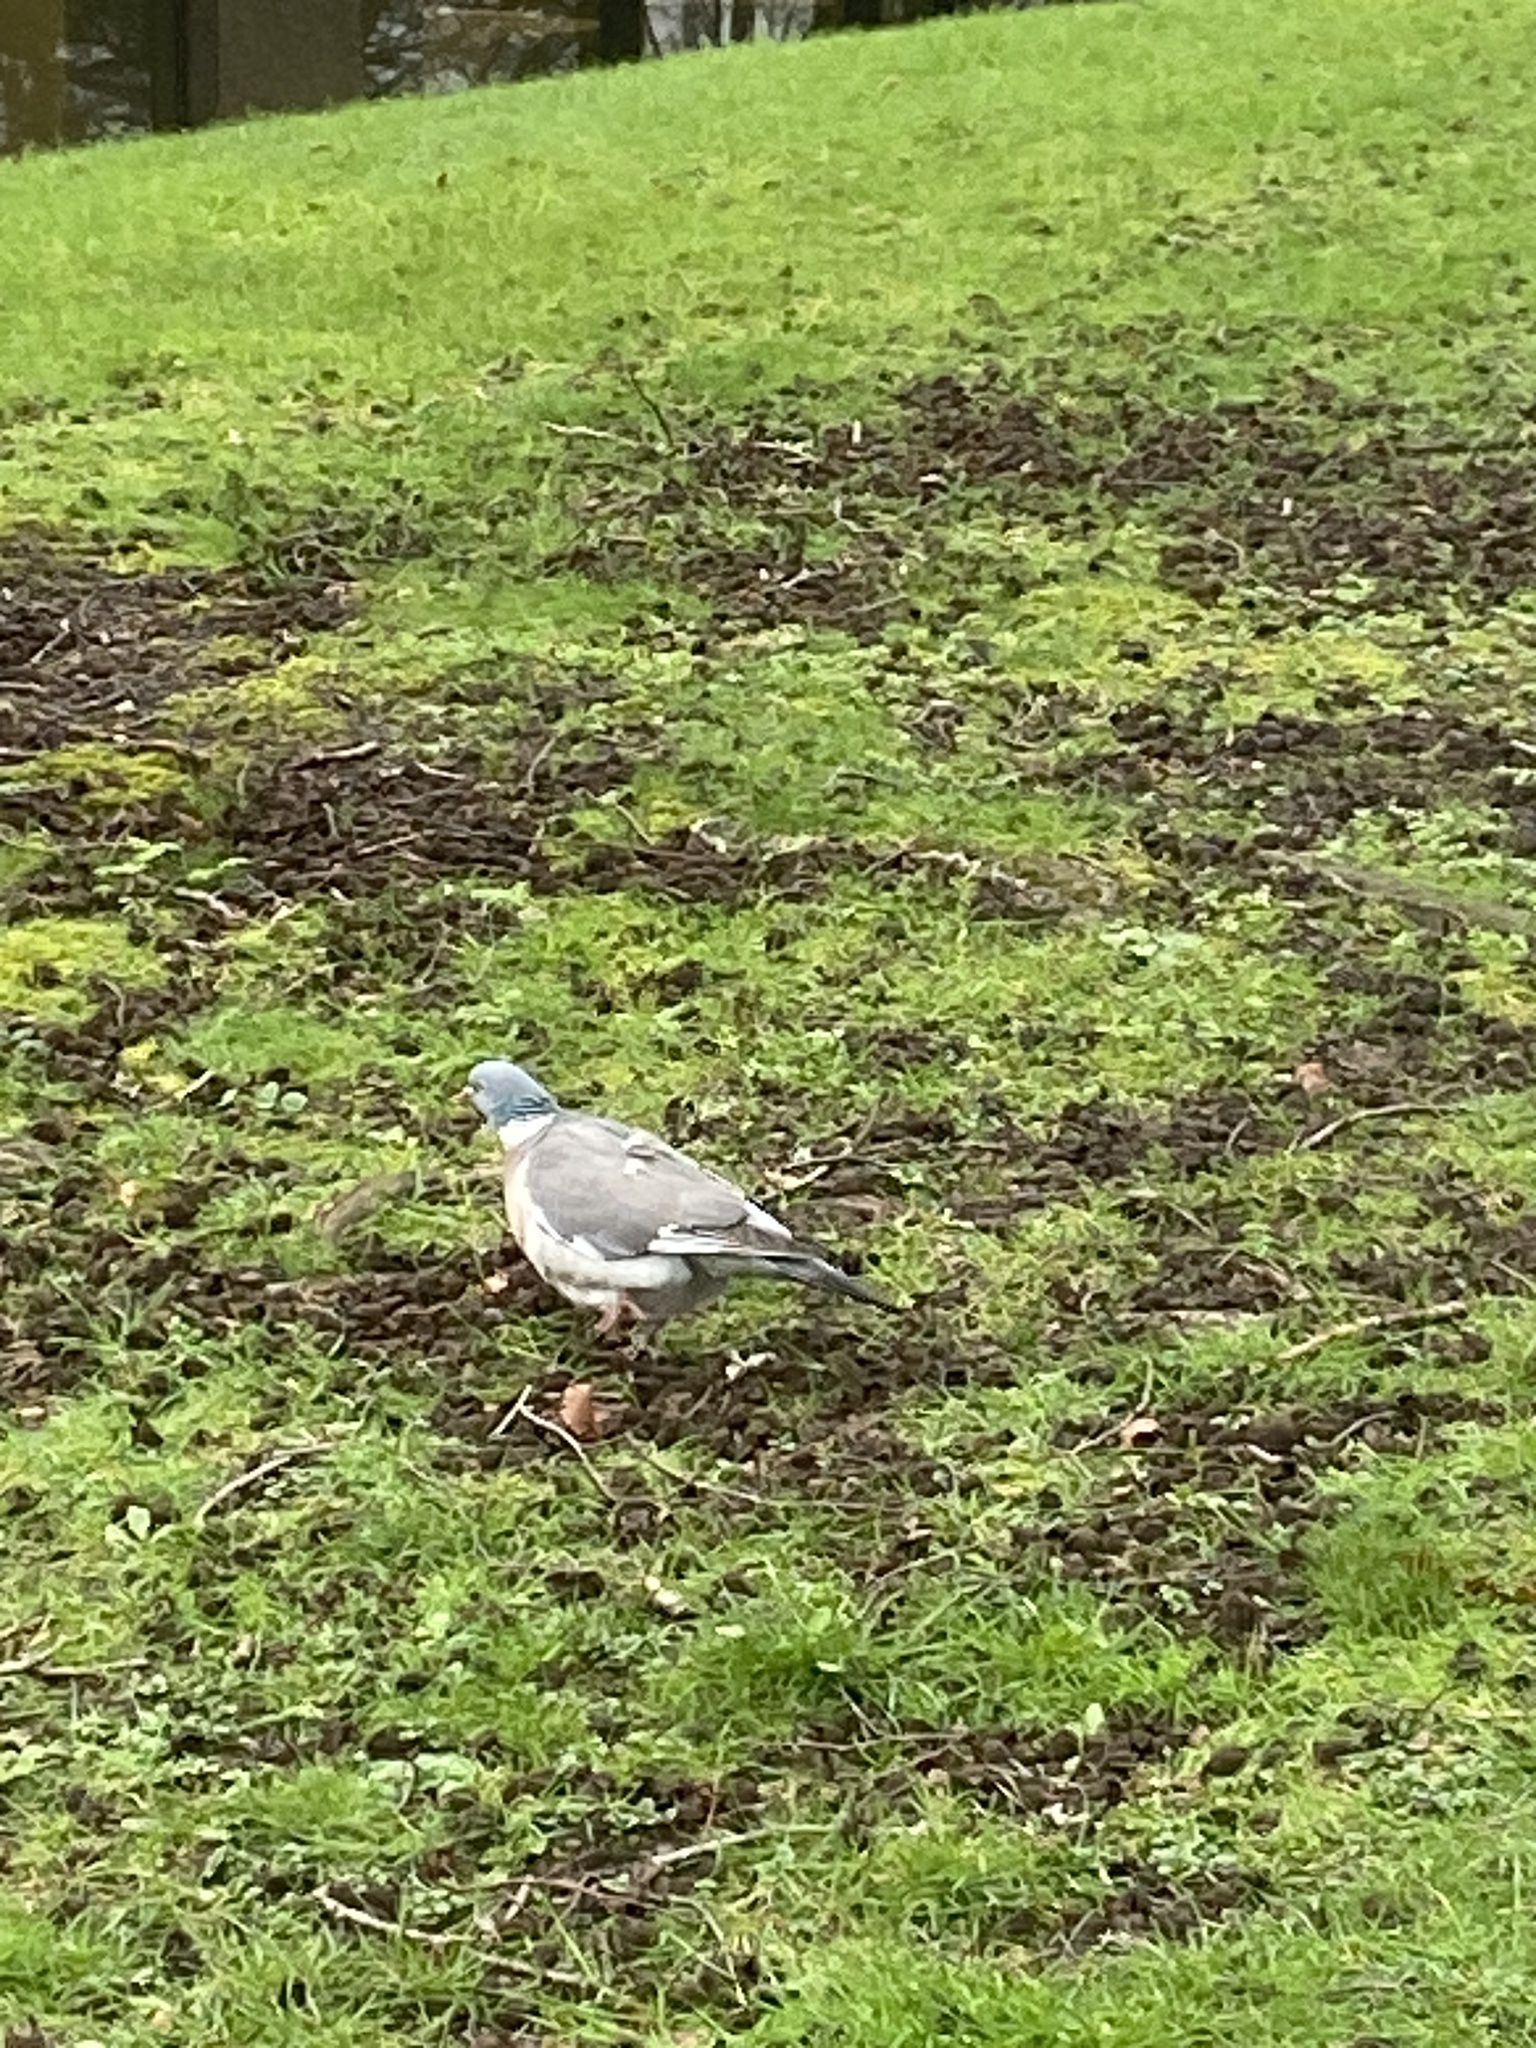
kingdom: Animalia
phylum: Chordata
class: Aves
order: Columbiformes
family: Columbidae
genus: Columba
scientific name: Columba palumbus
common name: Common wood pigeon
